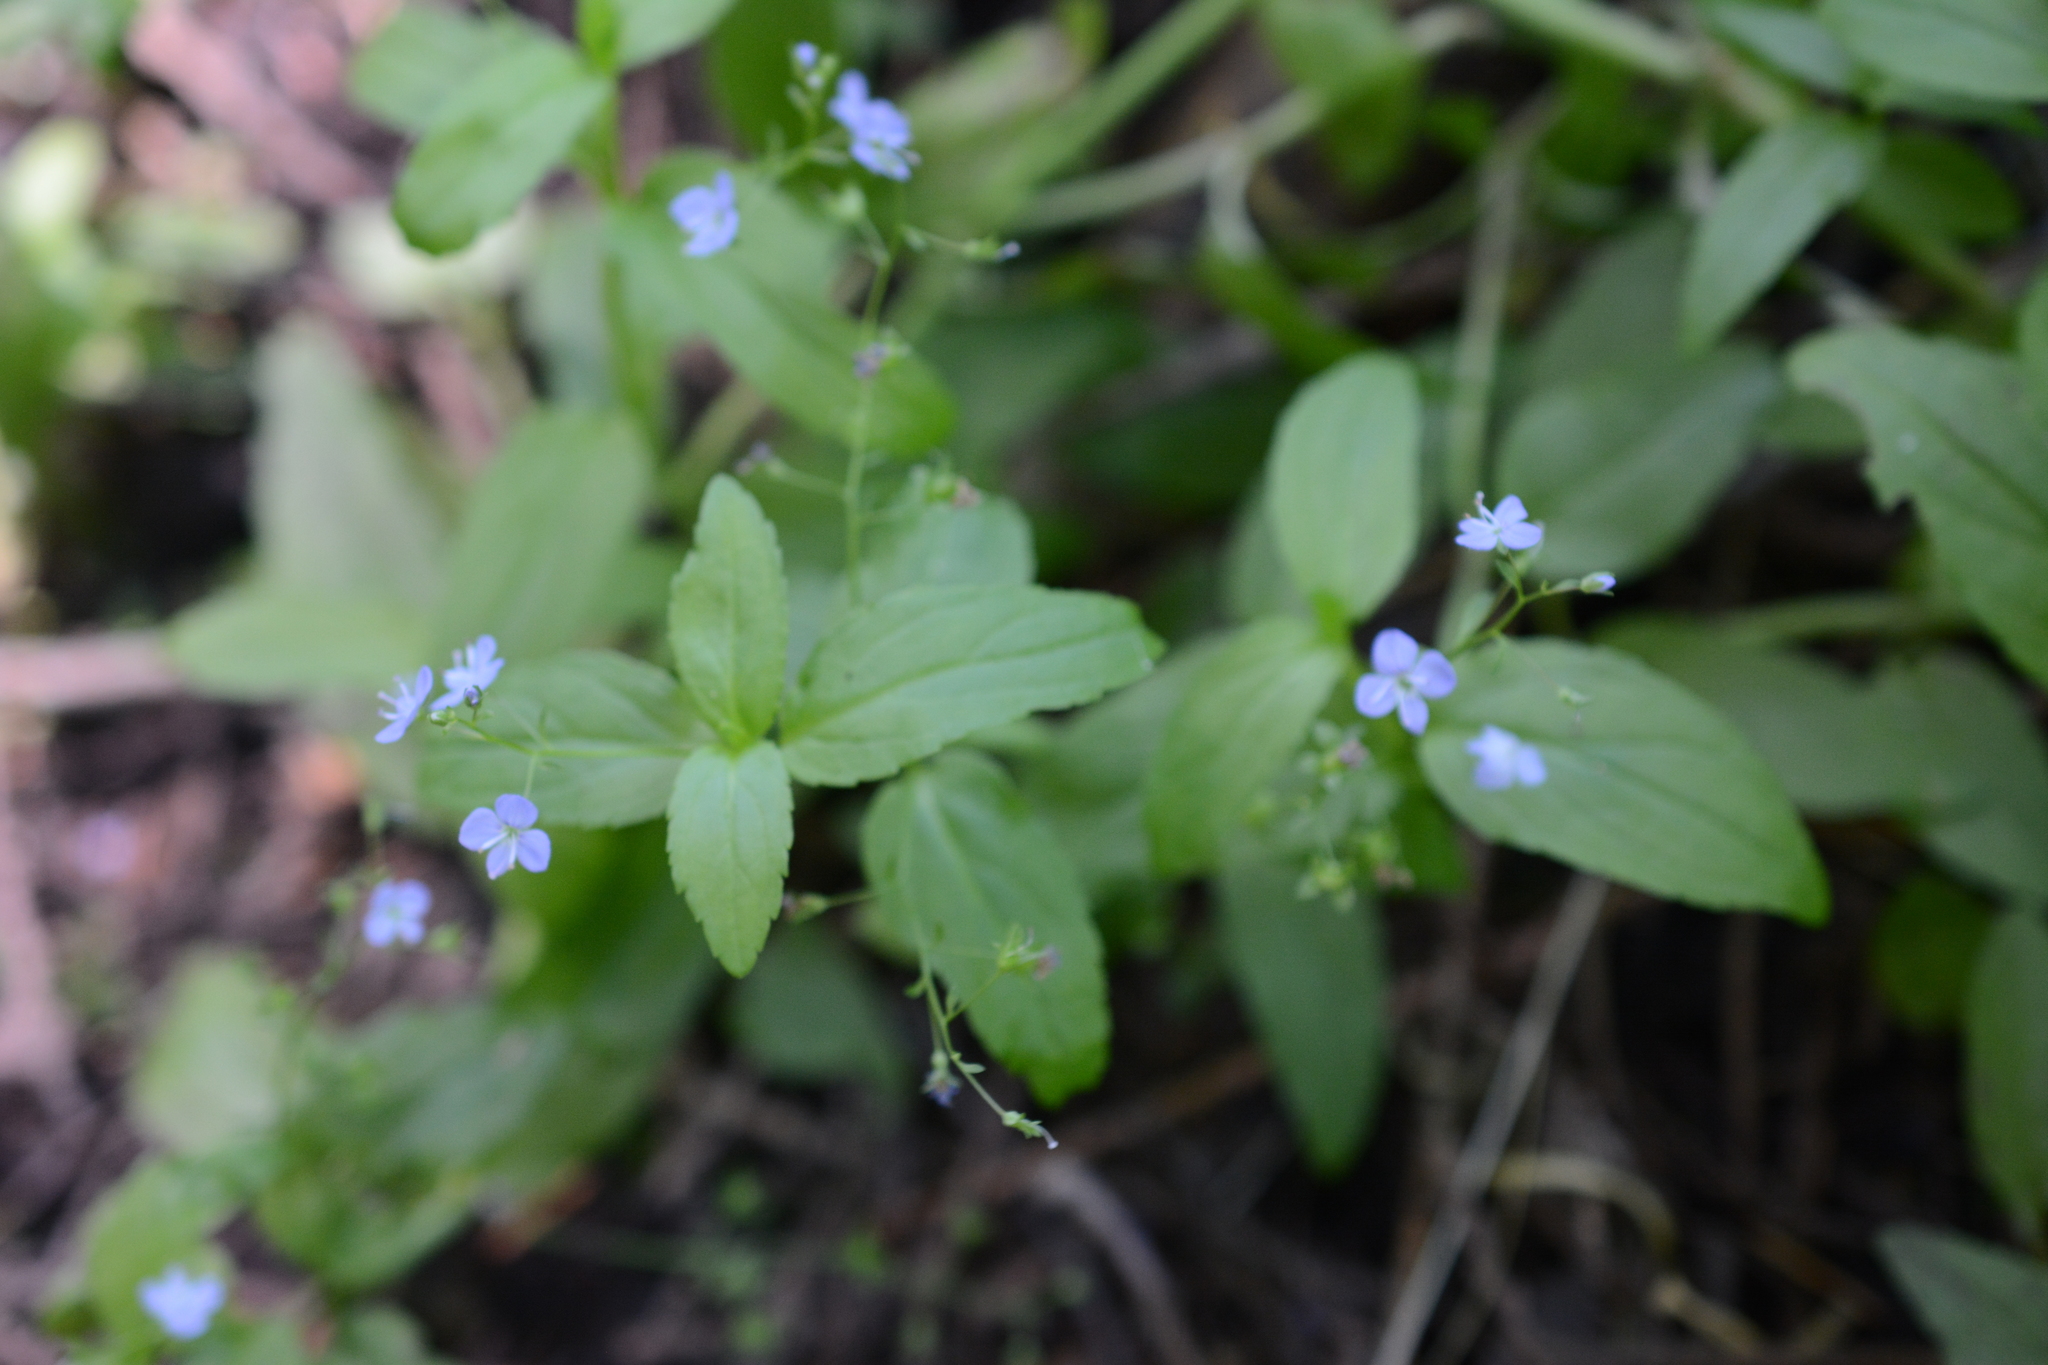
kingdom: Plantae
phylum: Tracheophyta
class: Magnoliopsida
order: Lamiales
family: Plantaginaceae
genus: Veronica
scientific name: Veronica americana
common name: American brooklime
